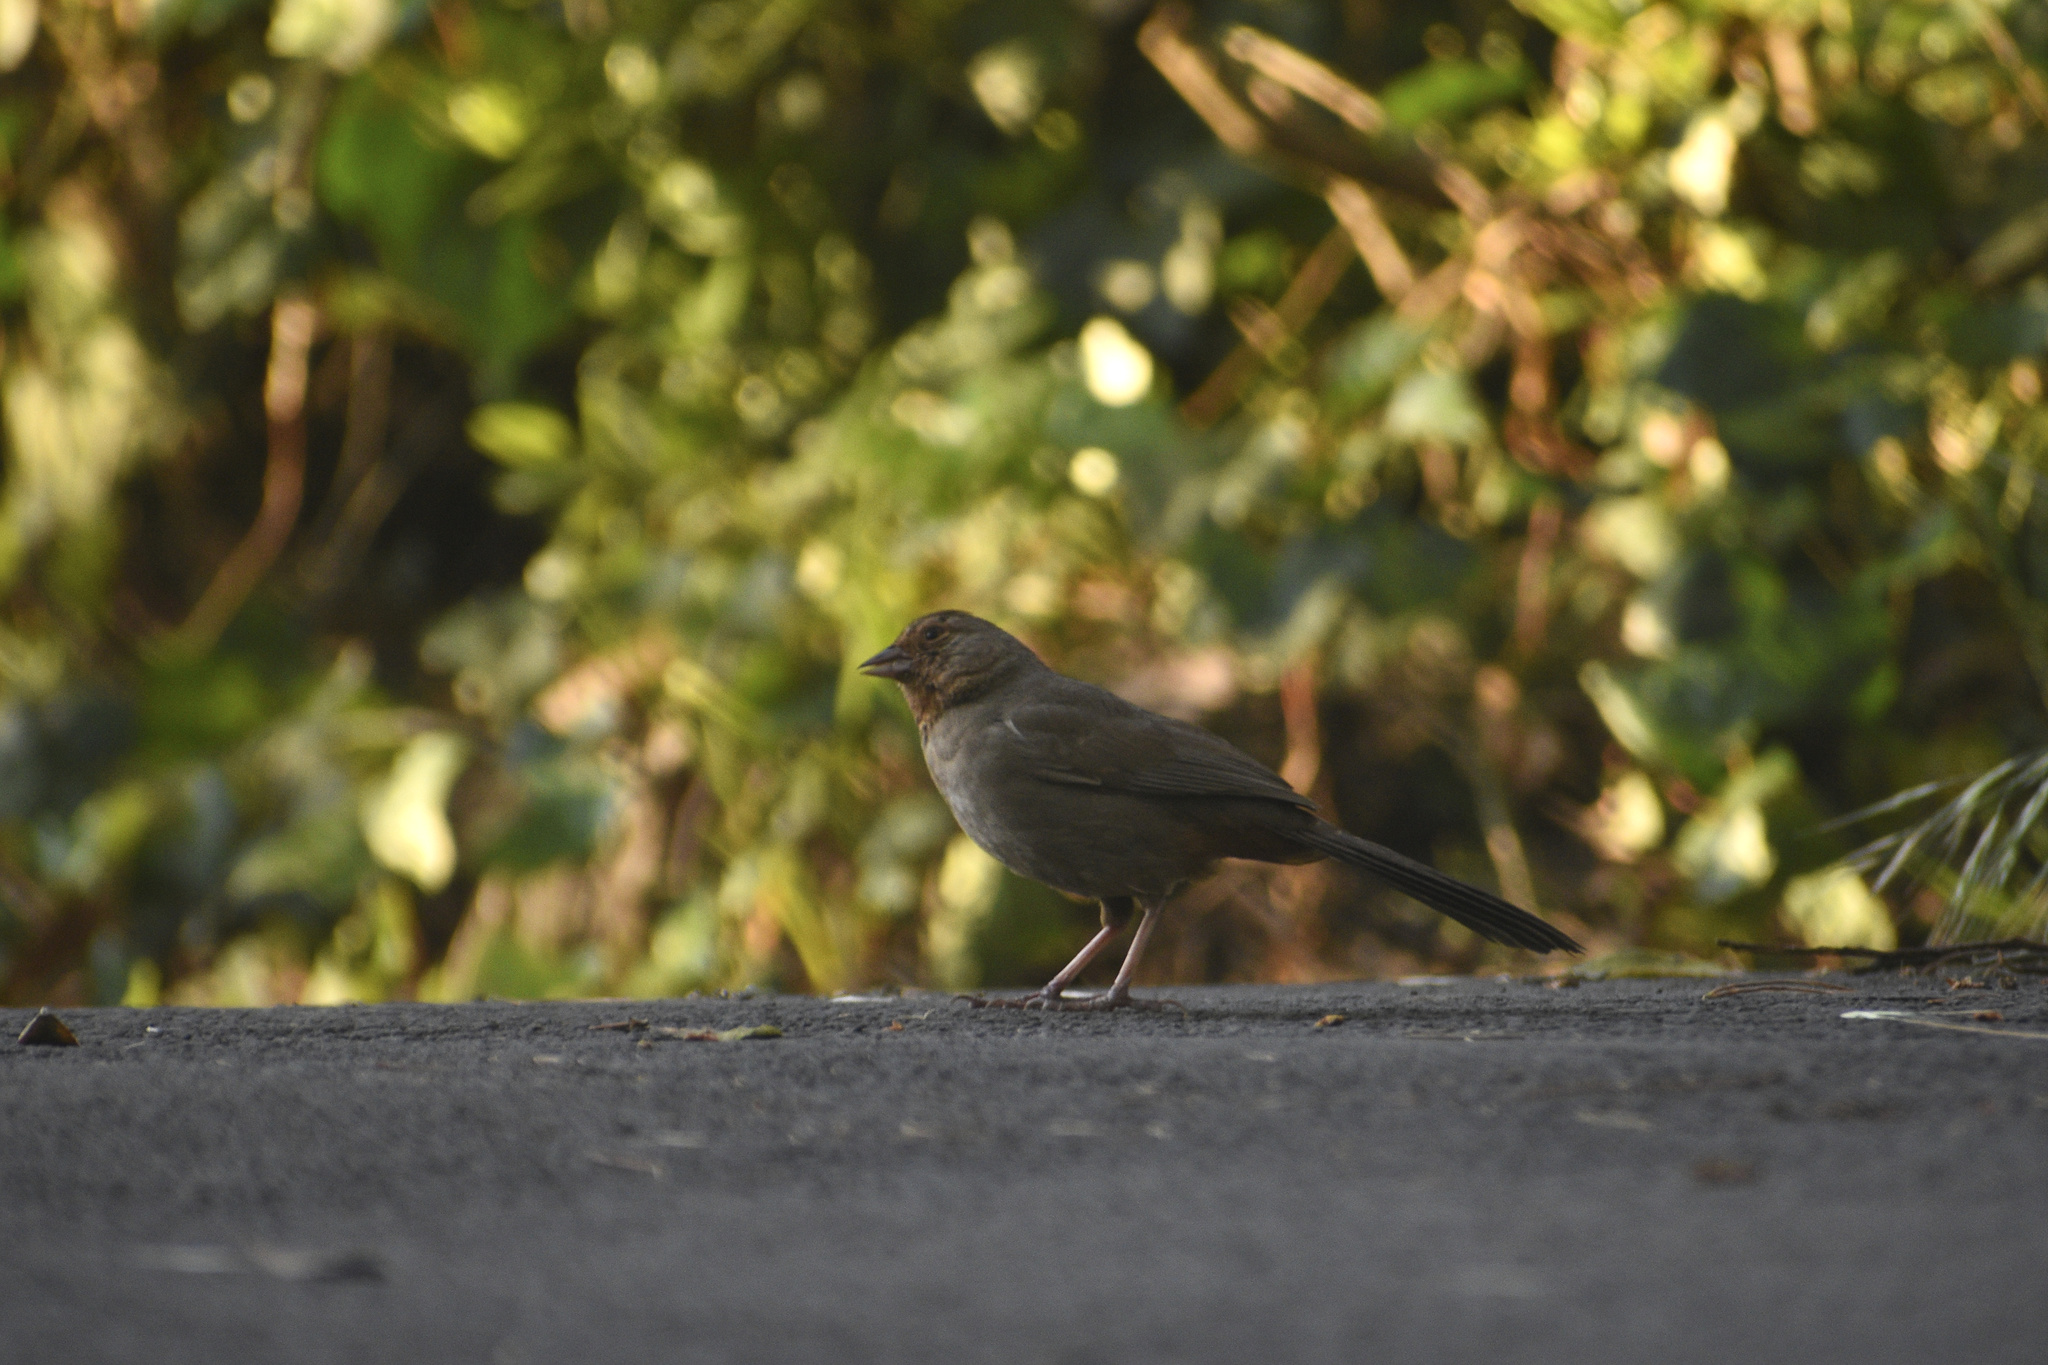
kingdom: Animalia
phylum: Chordata
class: Aves
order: Passeriformes
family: Passerellidae
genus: Melozone
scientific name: Melozone crissalis
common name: California towhee
